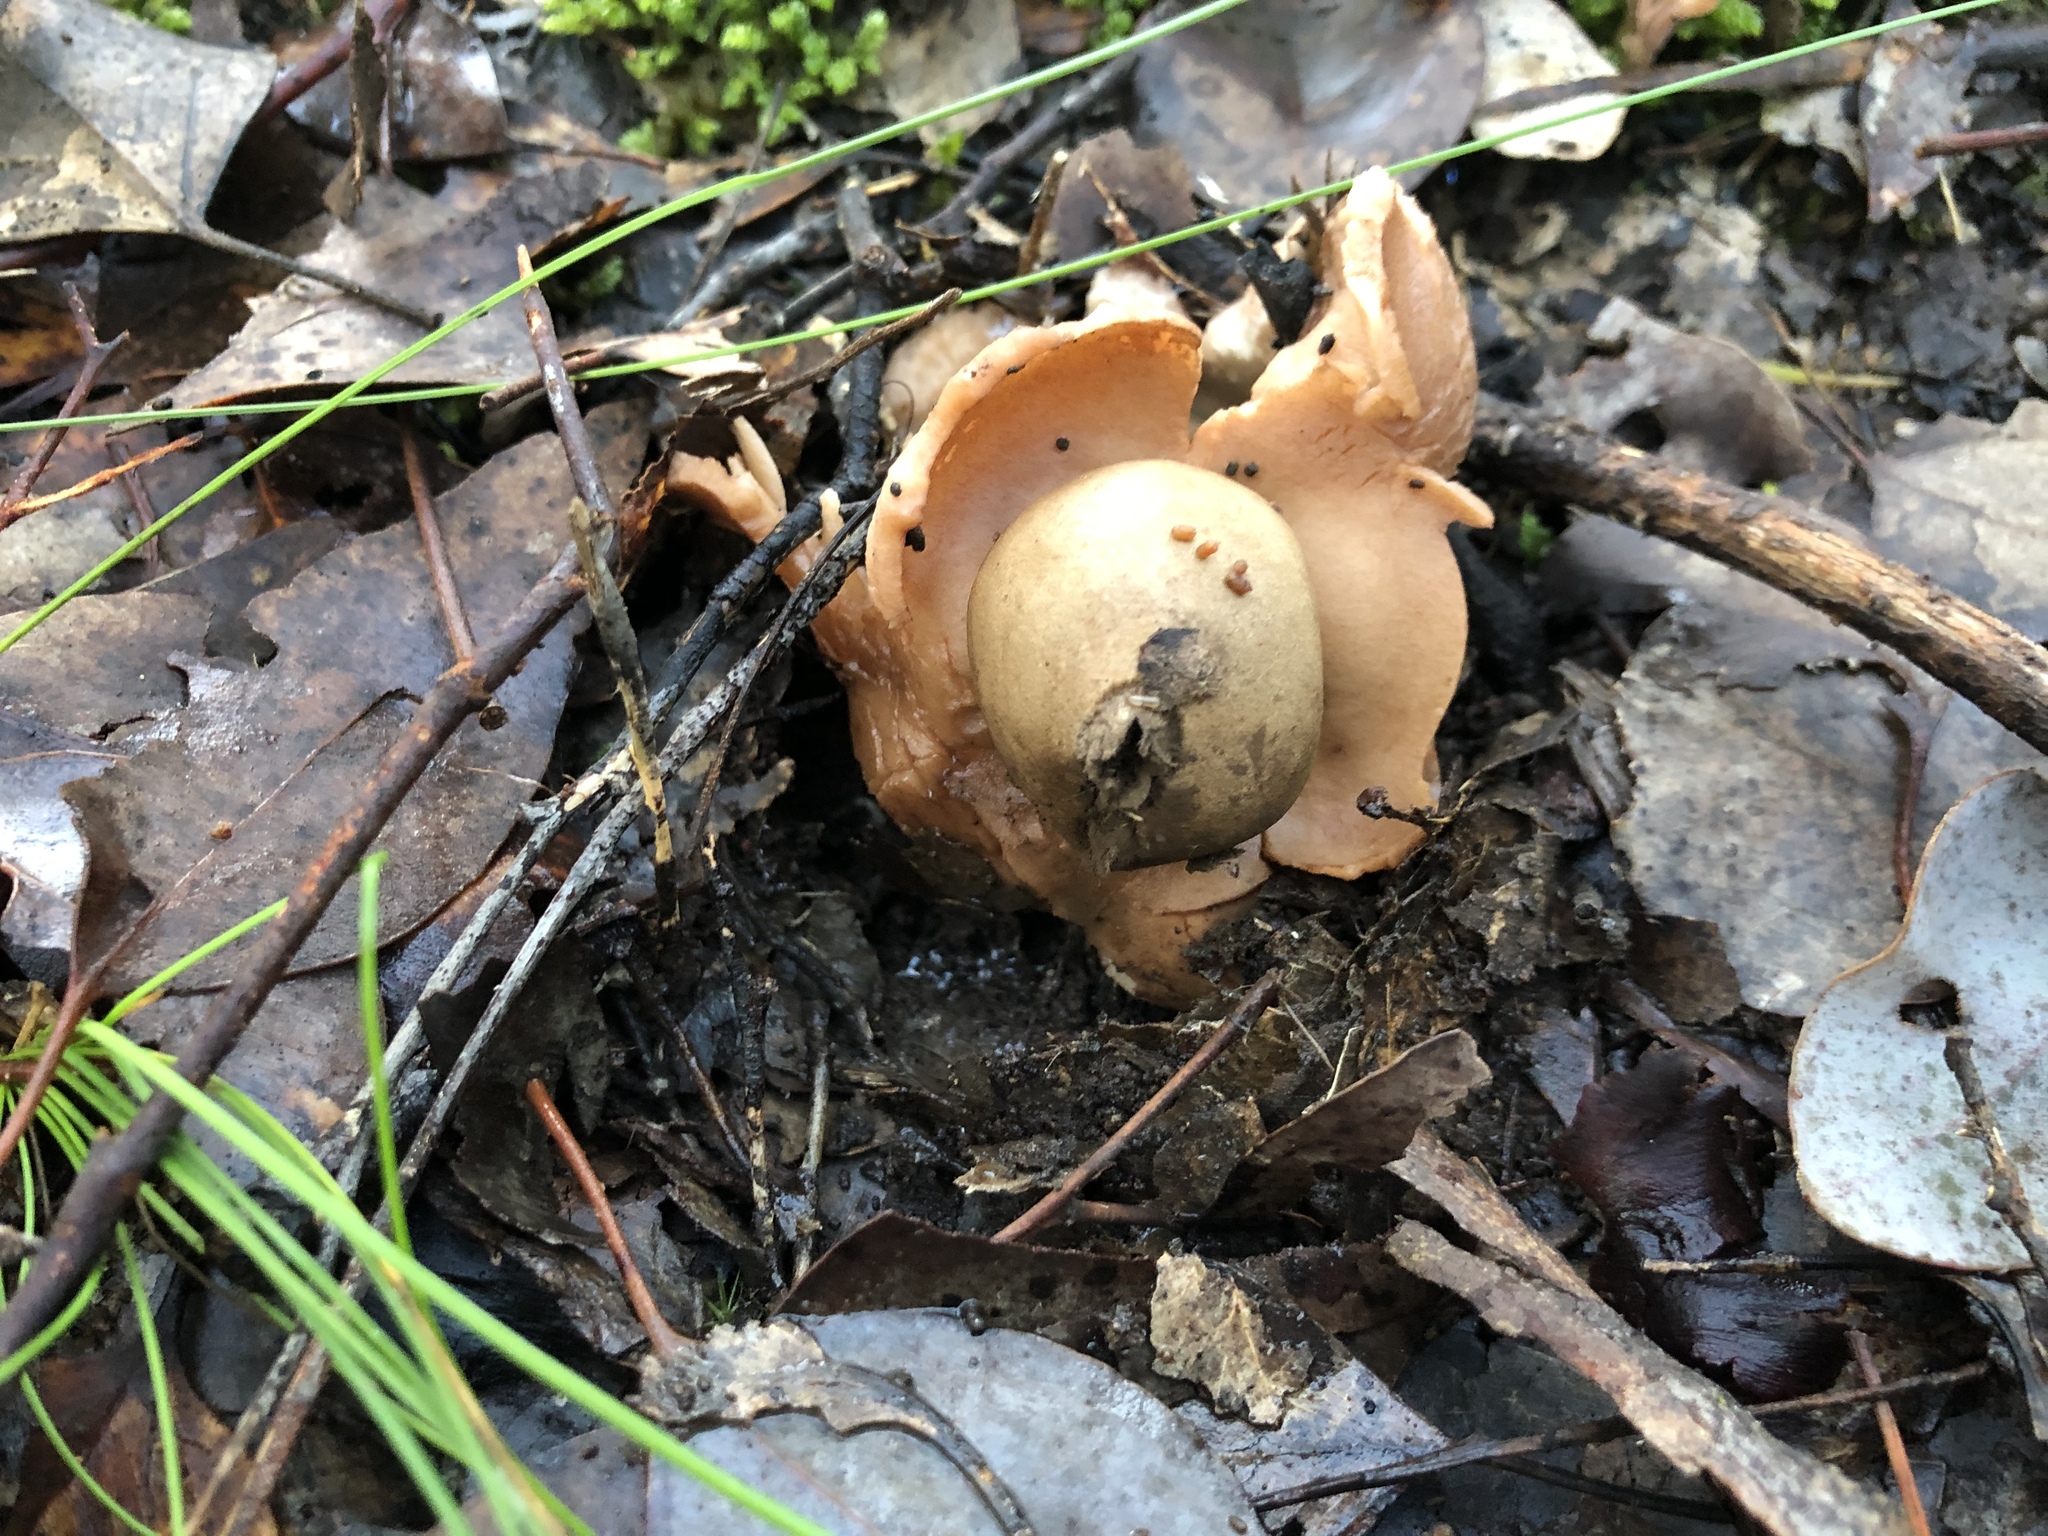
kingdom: Fungi
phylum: Basidiomycota
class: Agaricomycetes
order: Geastrales
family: Geastraceae
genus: Geastrum
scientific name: Geastrum triplex
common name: Collared earthstar
